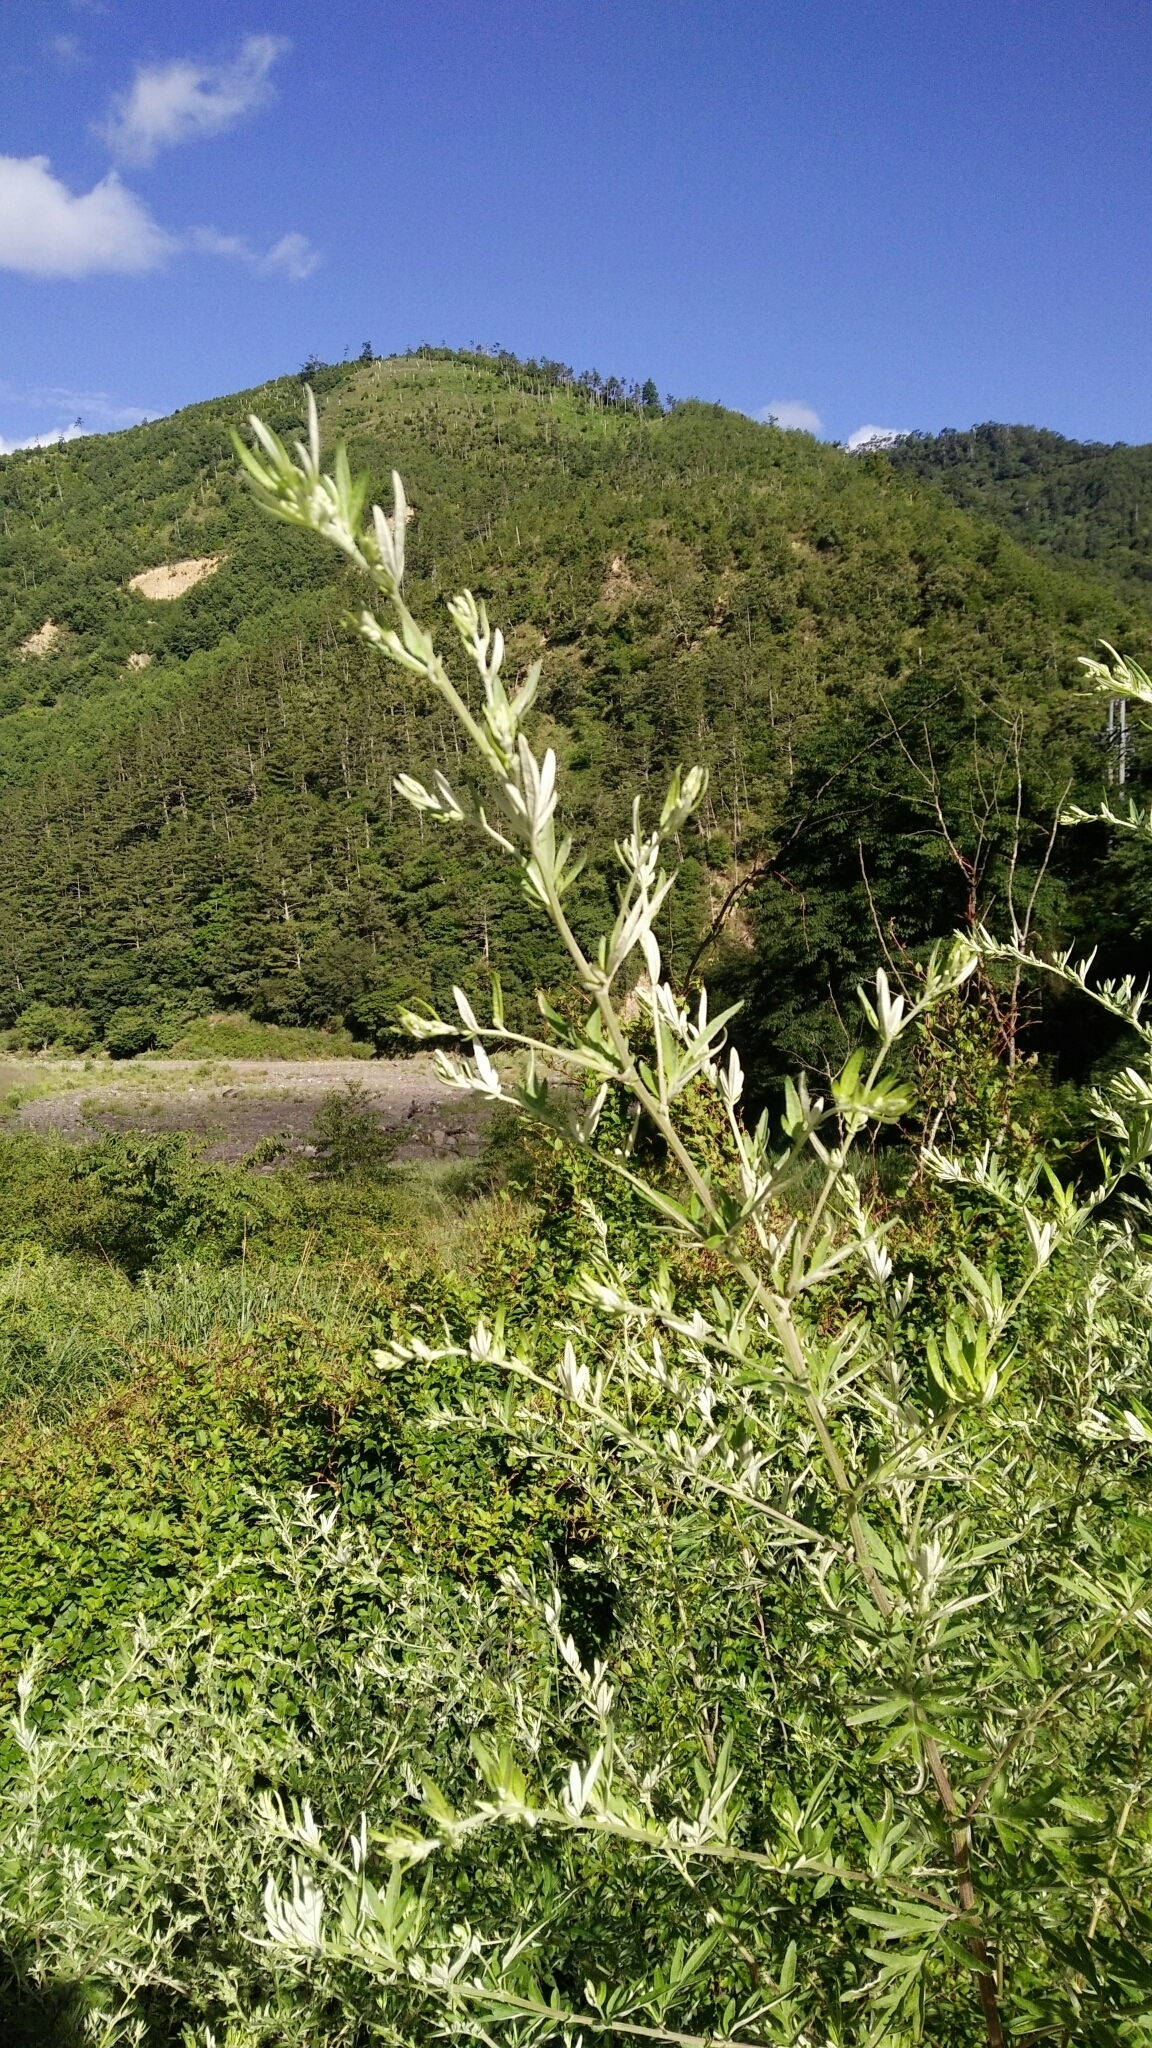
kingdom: Plantae
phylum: Tracheophyta
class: Magnoliopsida
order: Asterales
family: Asteraceae
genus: Artemisia
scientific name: Artemisia indica
